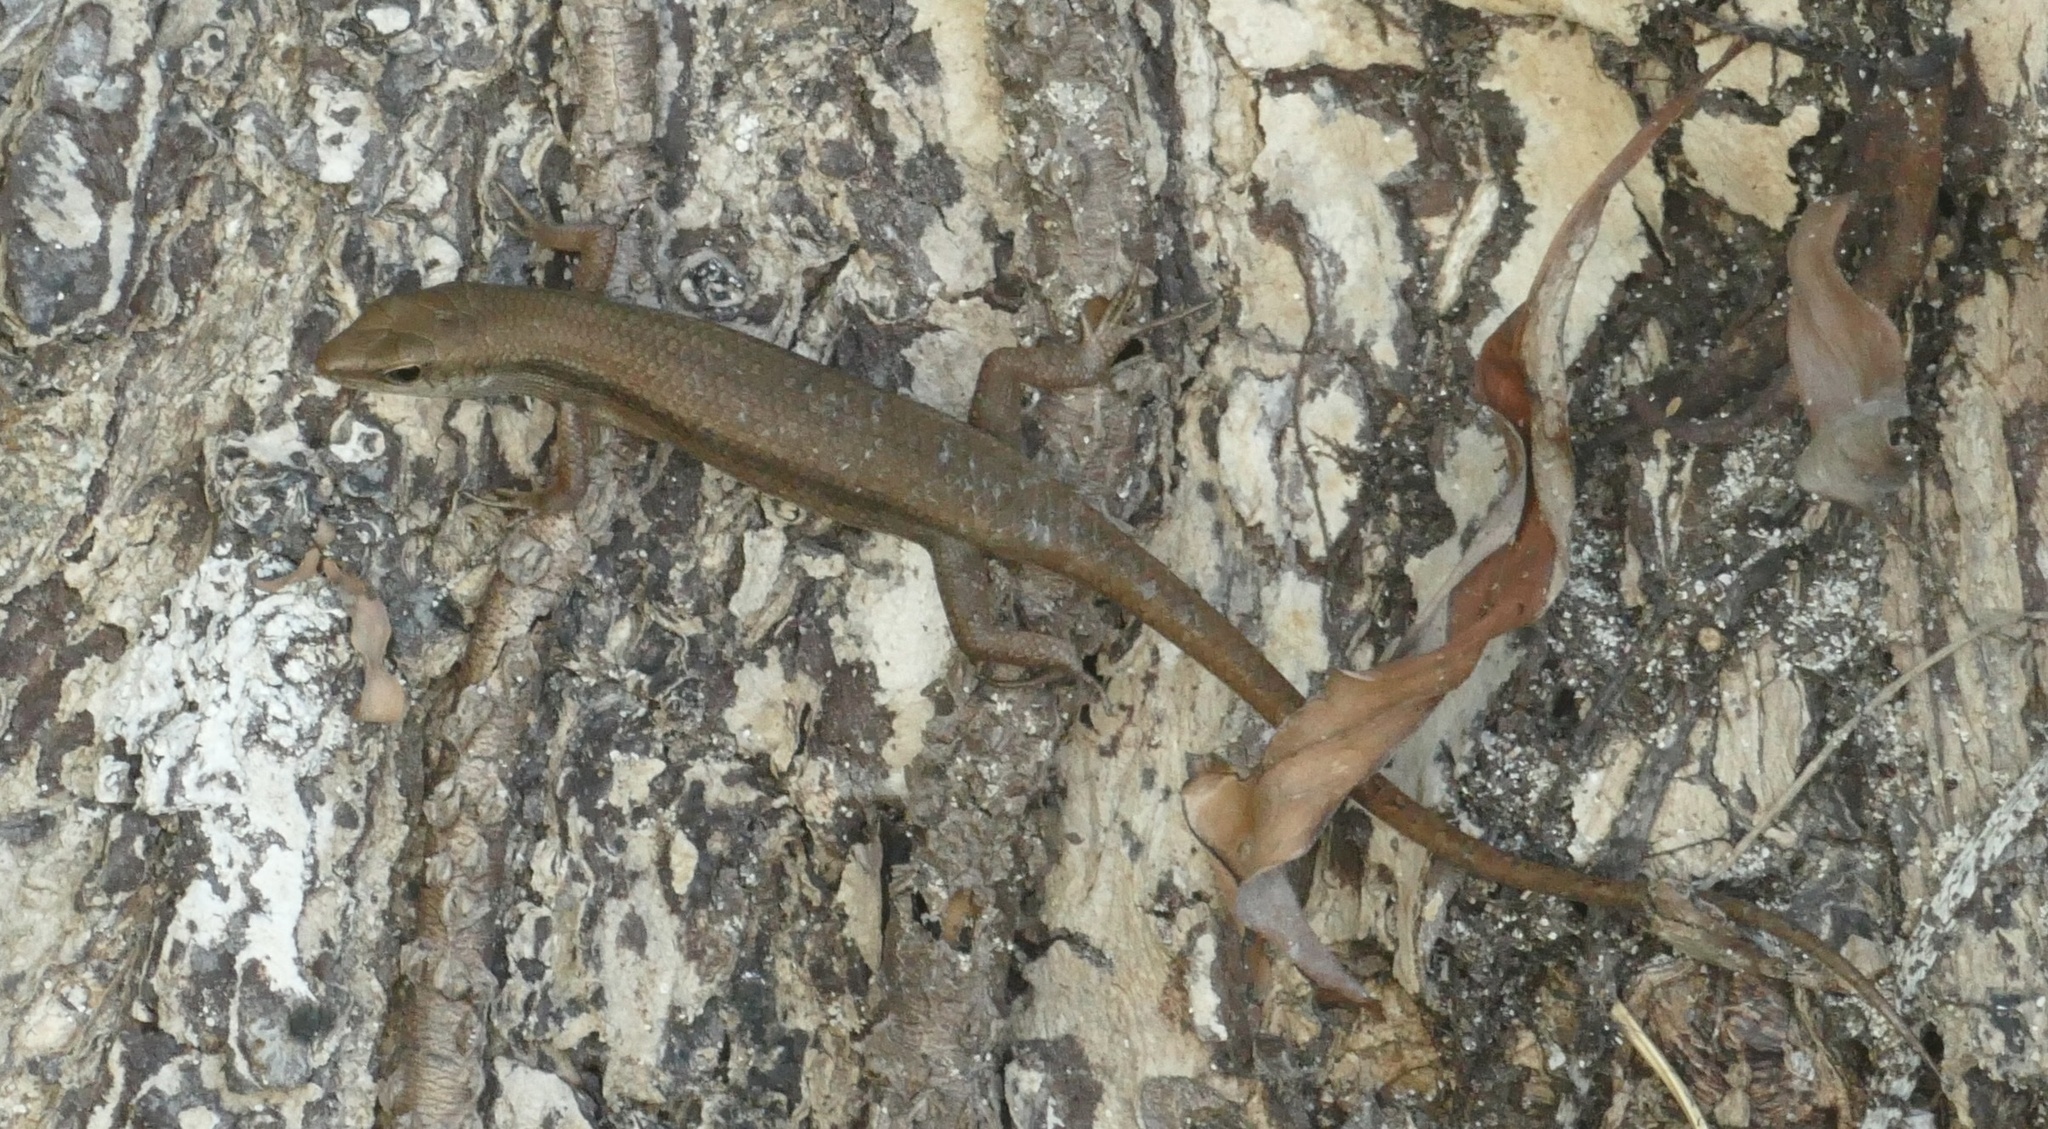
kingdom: Animalia
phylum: Chordata
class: Squamata
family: Scincidae
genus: Carlia
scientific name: Carlia fusca
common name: Brown four-fingered skink
